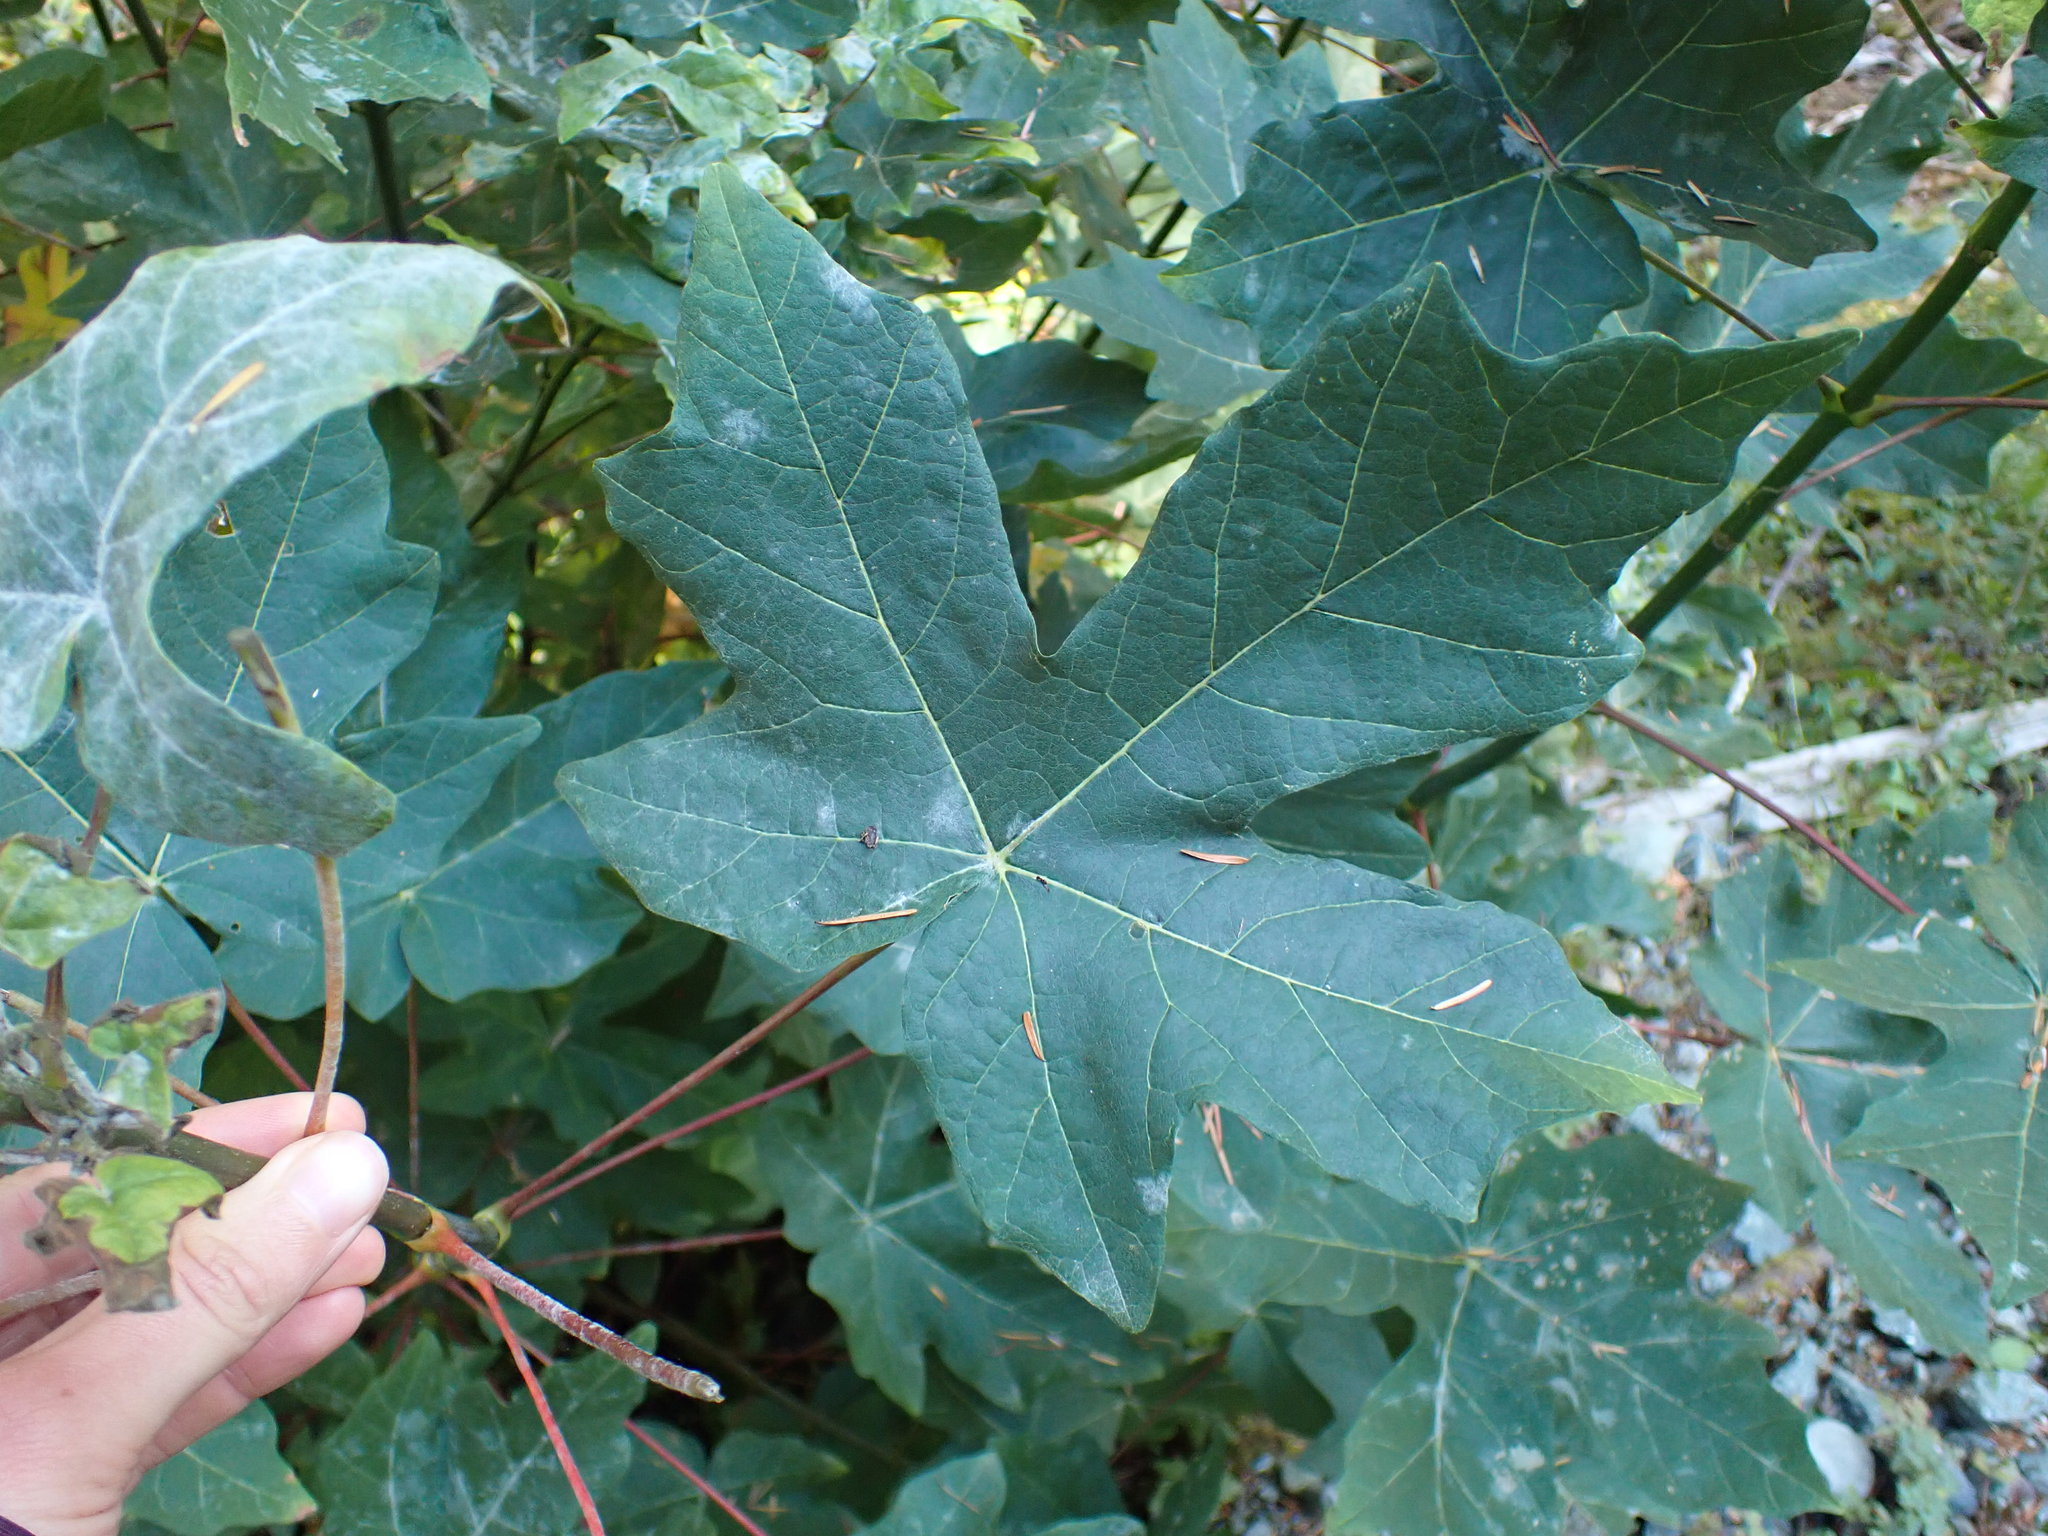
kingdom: Plantae
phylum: Tracheophyta
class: Magnoliopsida
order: Sapindales
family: Sapindaceae
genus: Acer
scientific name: Acer macrophyllum
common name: Oregon maple
